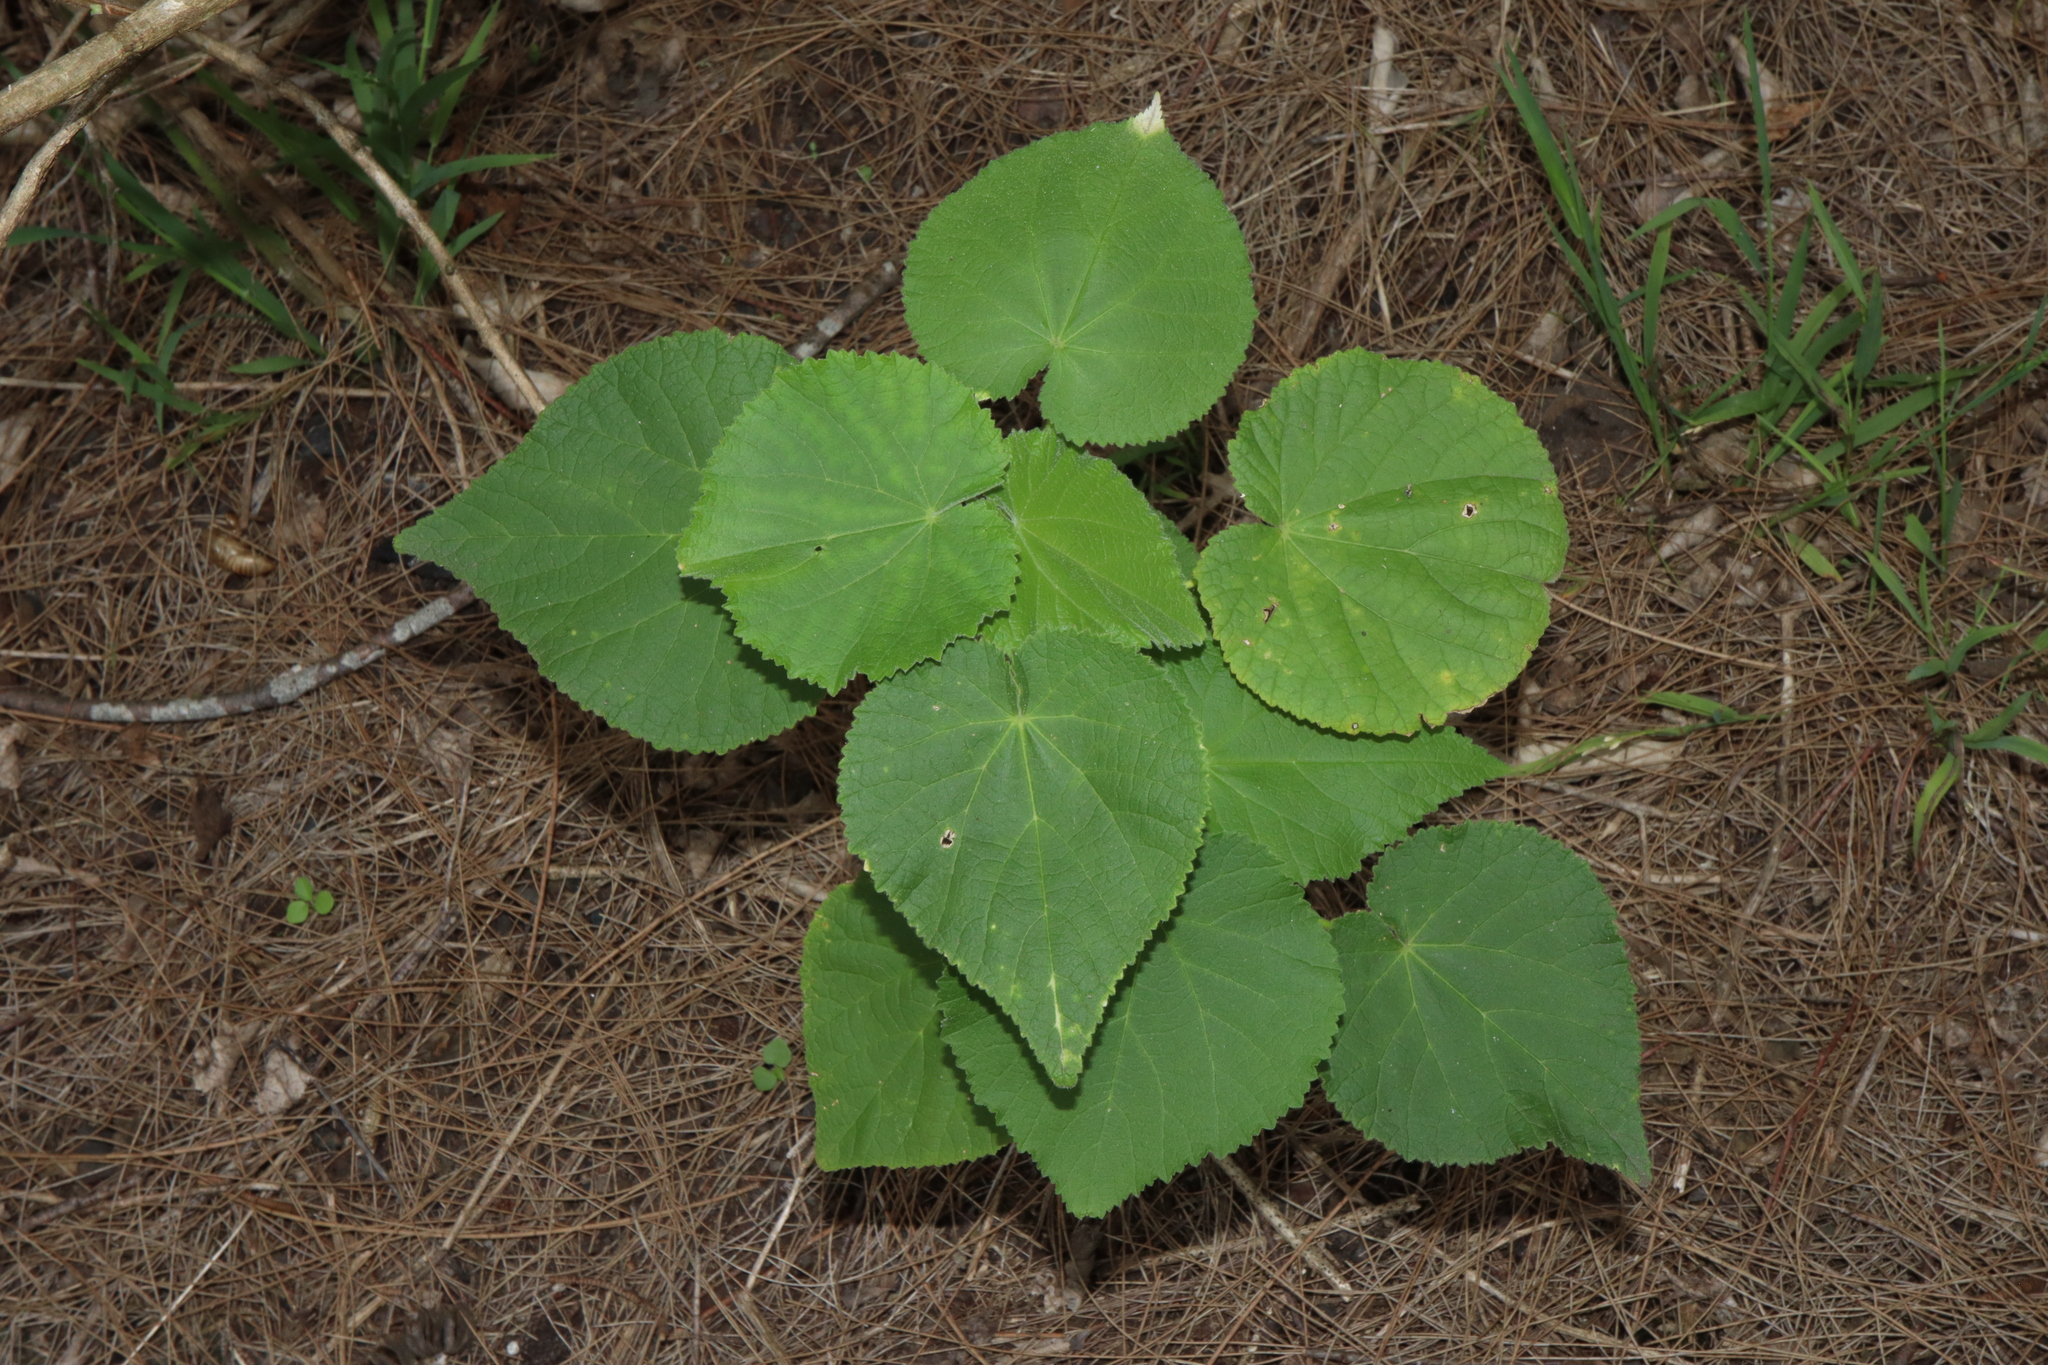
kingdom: Plantae
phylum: Tracheophyta
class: Magnoliopsida
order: Malvales
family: Malvaceae
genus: Abutilon
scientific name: Abutilon grandifolium
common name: Hairy abutilon
